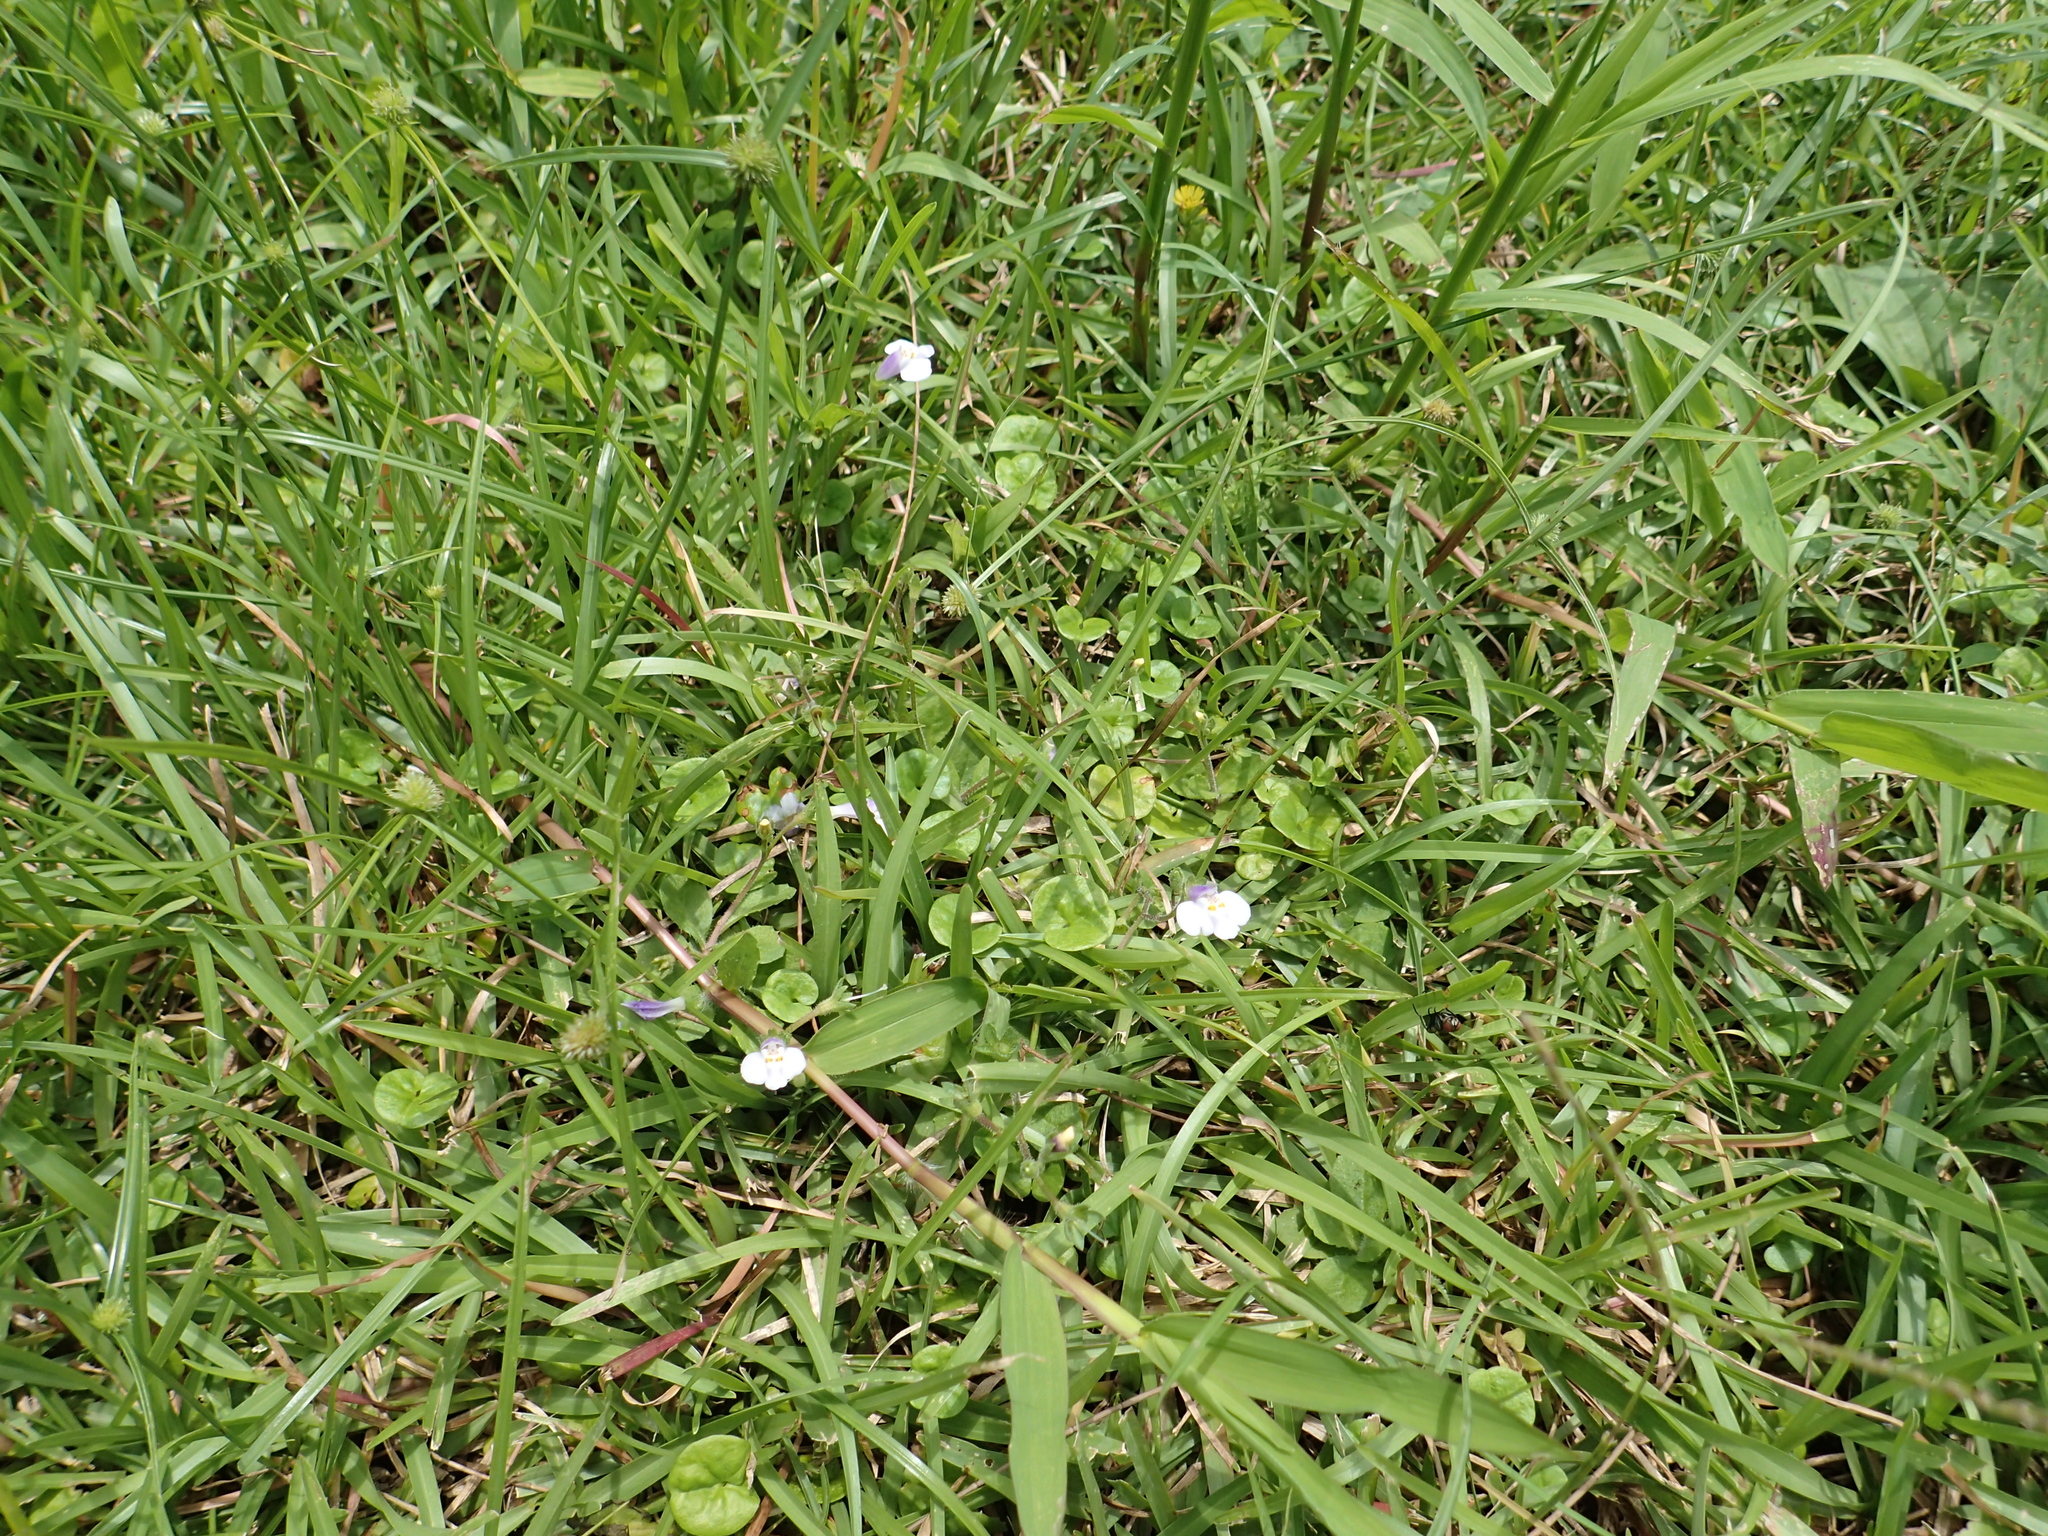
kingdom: Plantae
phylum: Tracheophyta
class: Magnoliopsida
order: Lamiales
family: Mazaceae
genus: Mazus
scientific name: Mazus fauriei
